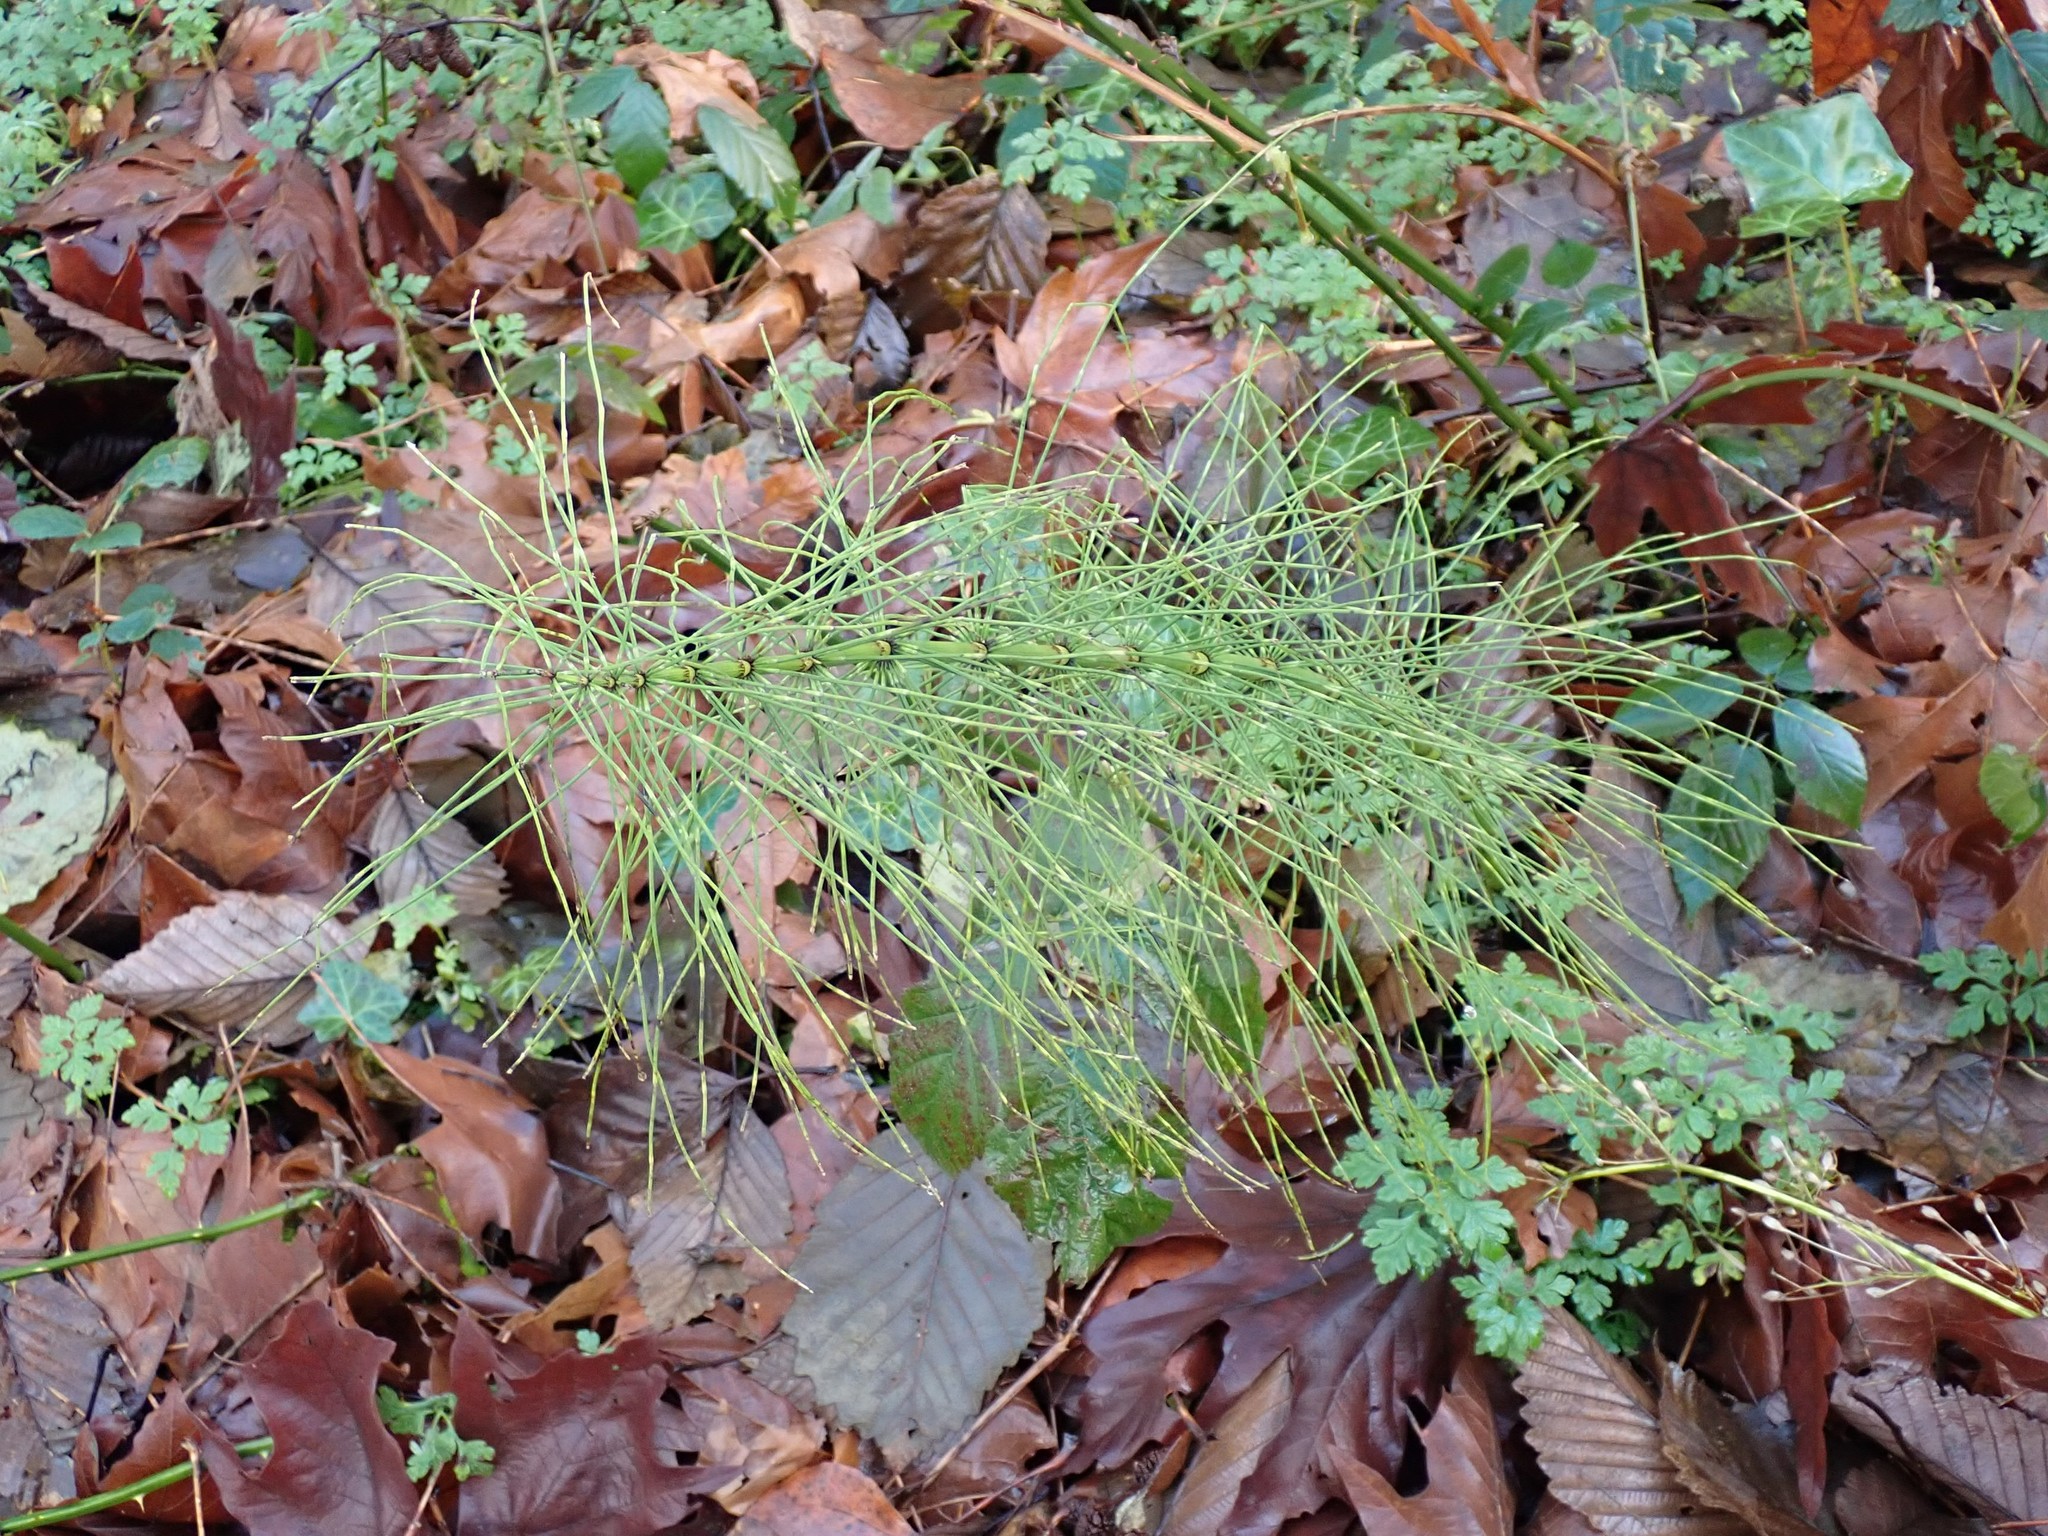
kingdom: Plantae
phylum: Tracheophyta
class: Polypodiopsida
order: Equisetales
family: Equisetaceae
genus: Equisetum
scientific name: Equisetum braunii
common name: Braun's horsetail
